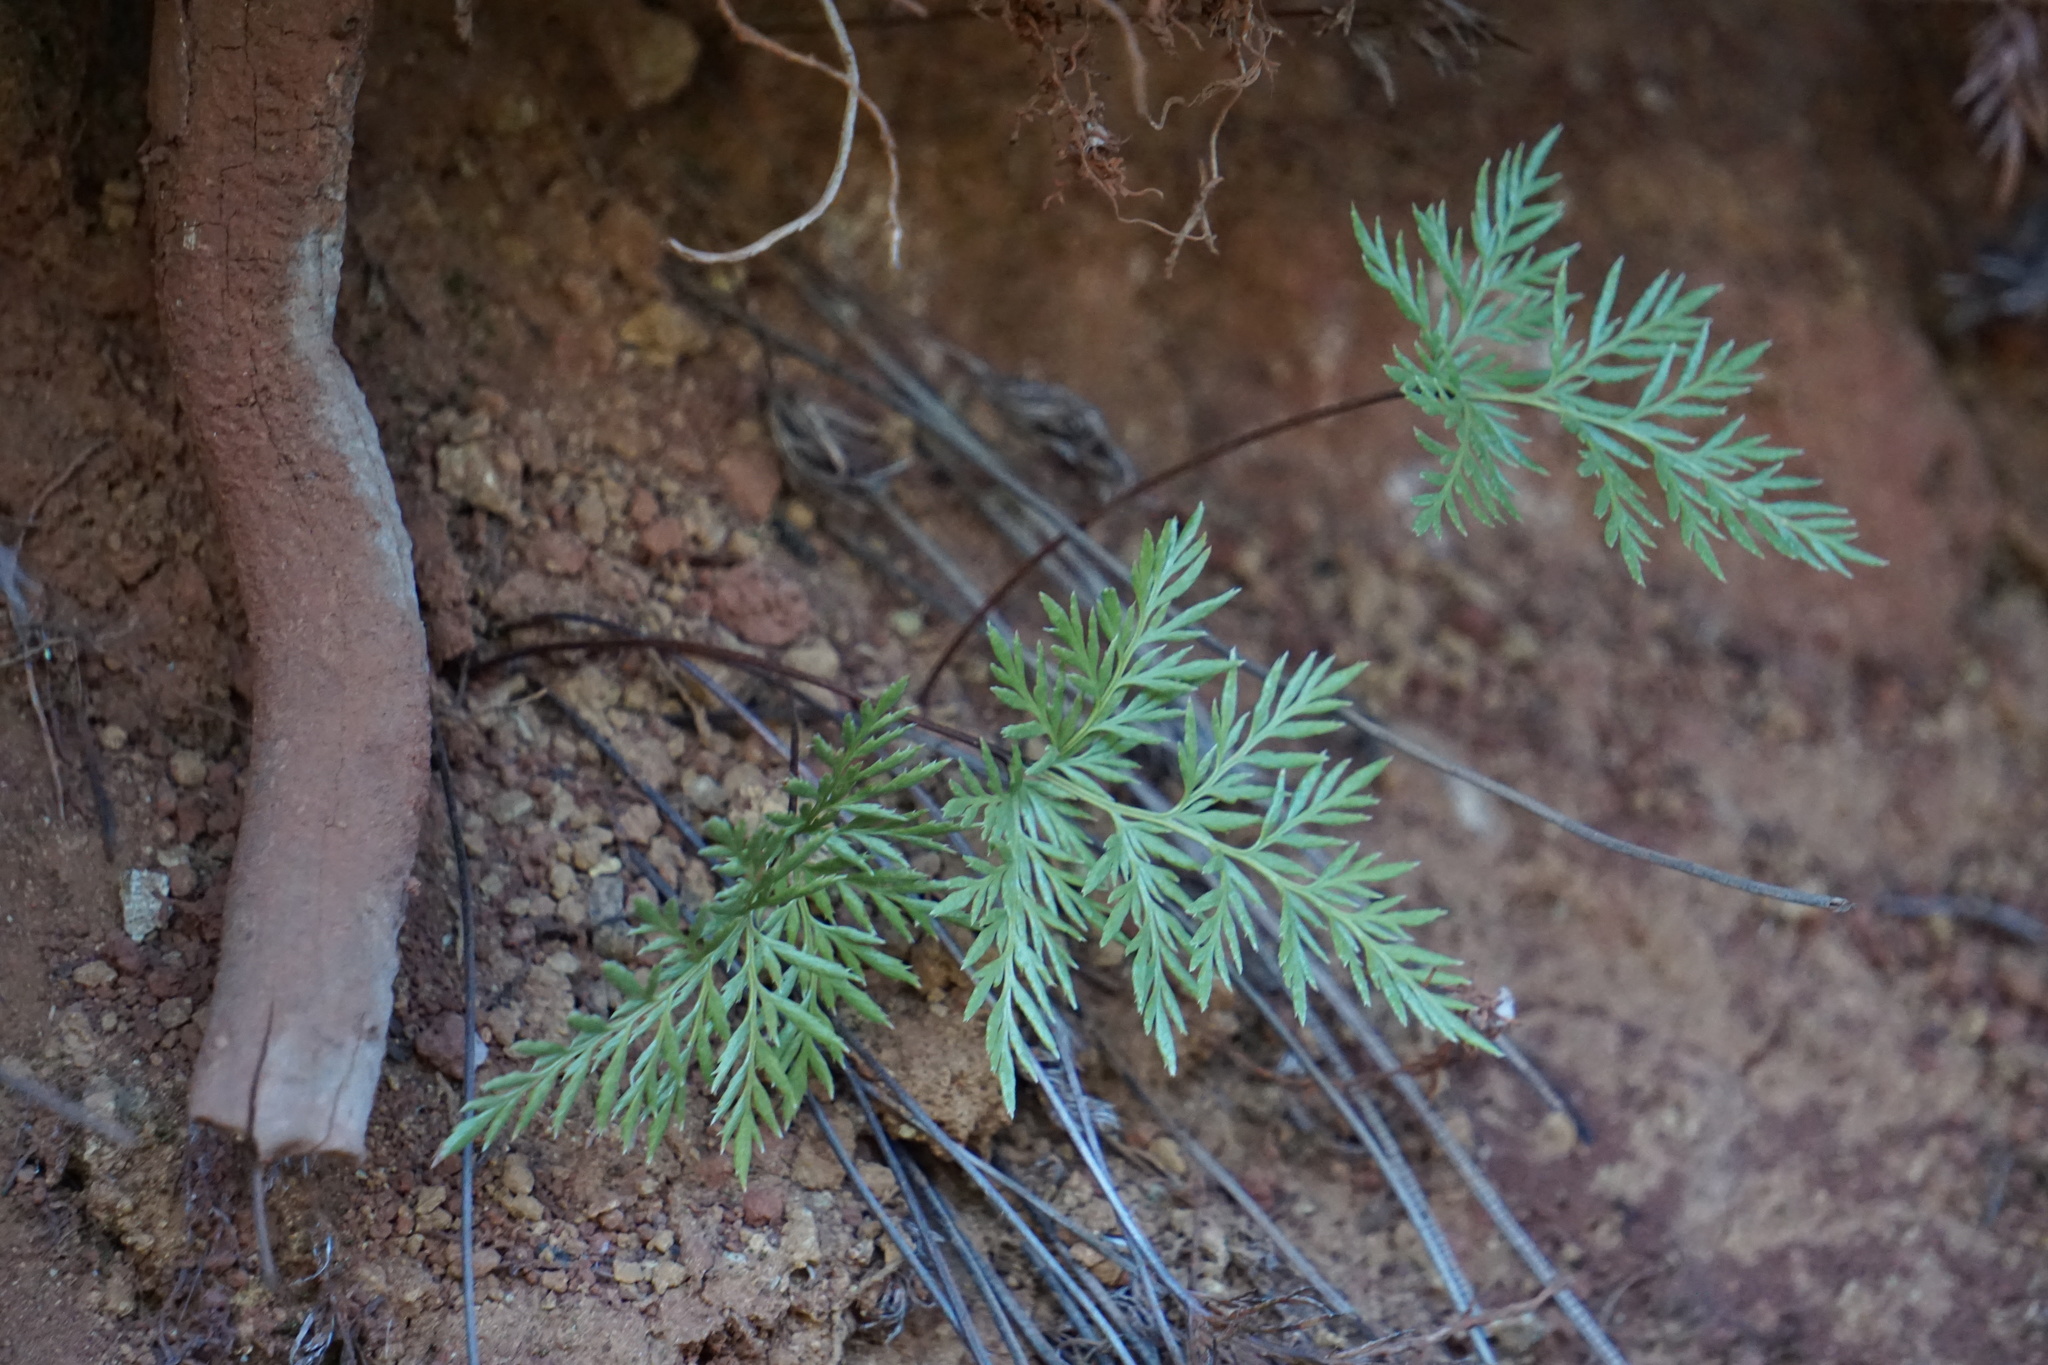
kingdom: Plantae
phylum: Tracheophyta
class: Polypodiopsida
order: Polypodiales
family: Pteridaceae
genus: Aspidotis
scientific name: Aspidotis densa
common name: Indian's dream
